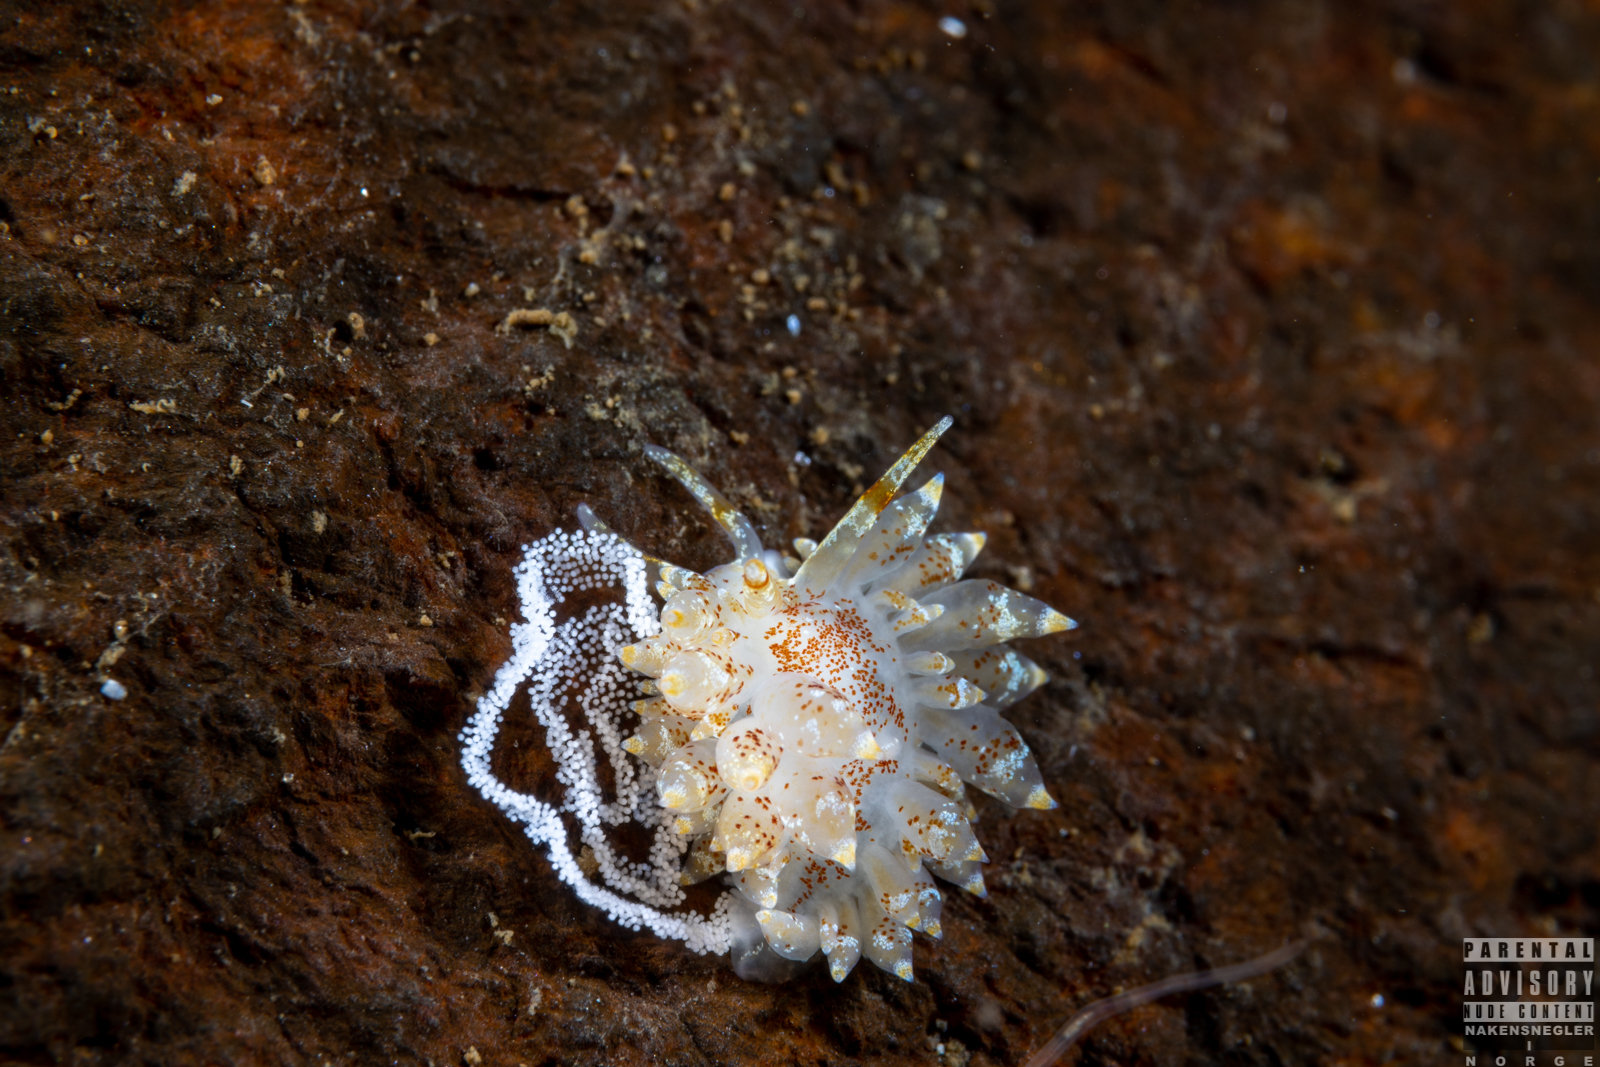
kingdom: Animalia
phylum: Mollusca
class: Gastropoda
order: Nudibranchia
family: Eubranchidae
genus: Amphorina
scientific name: Amphorina pallida
